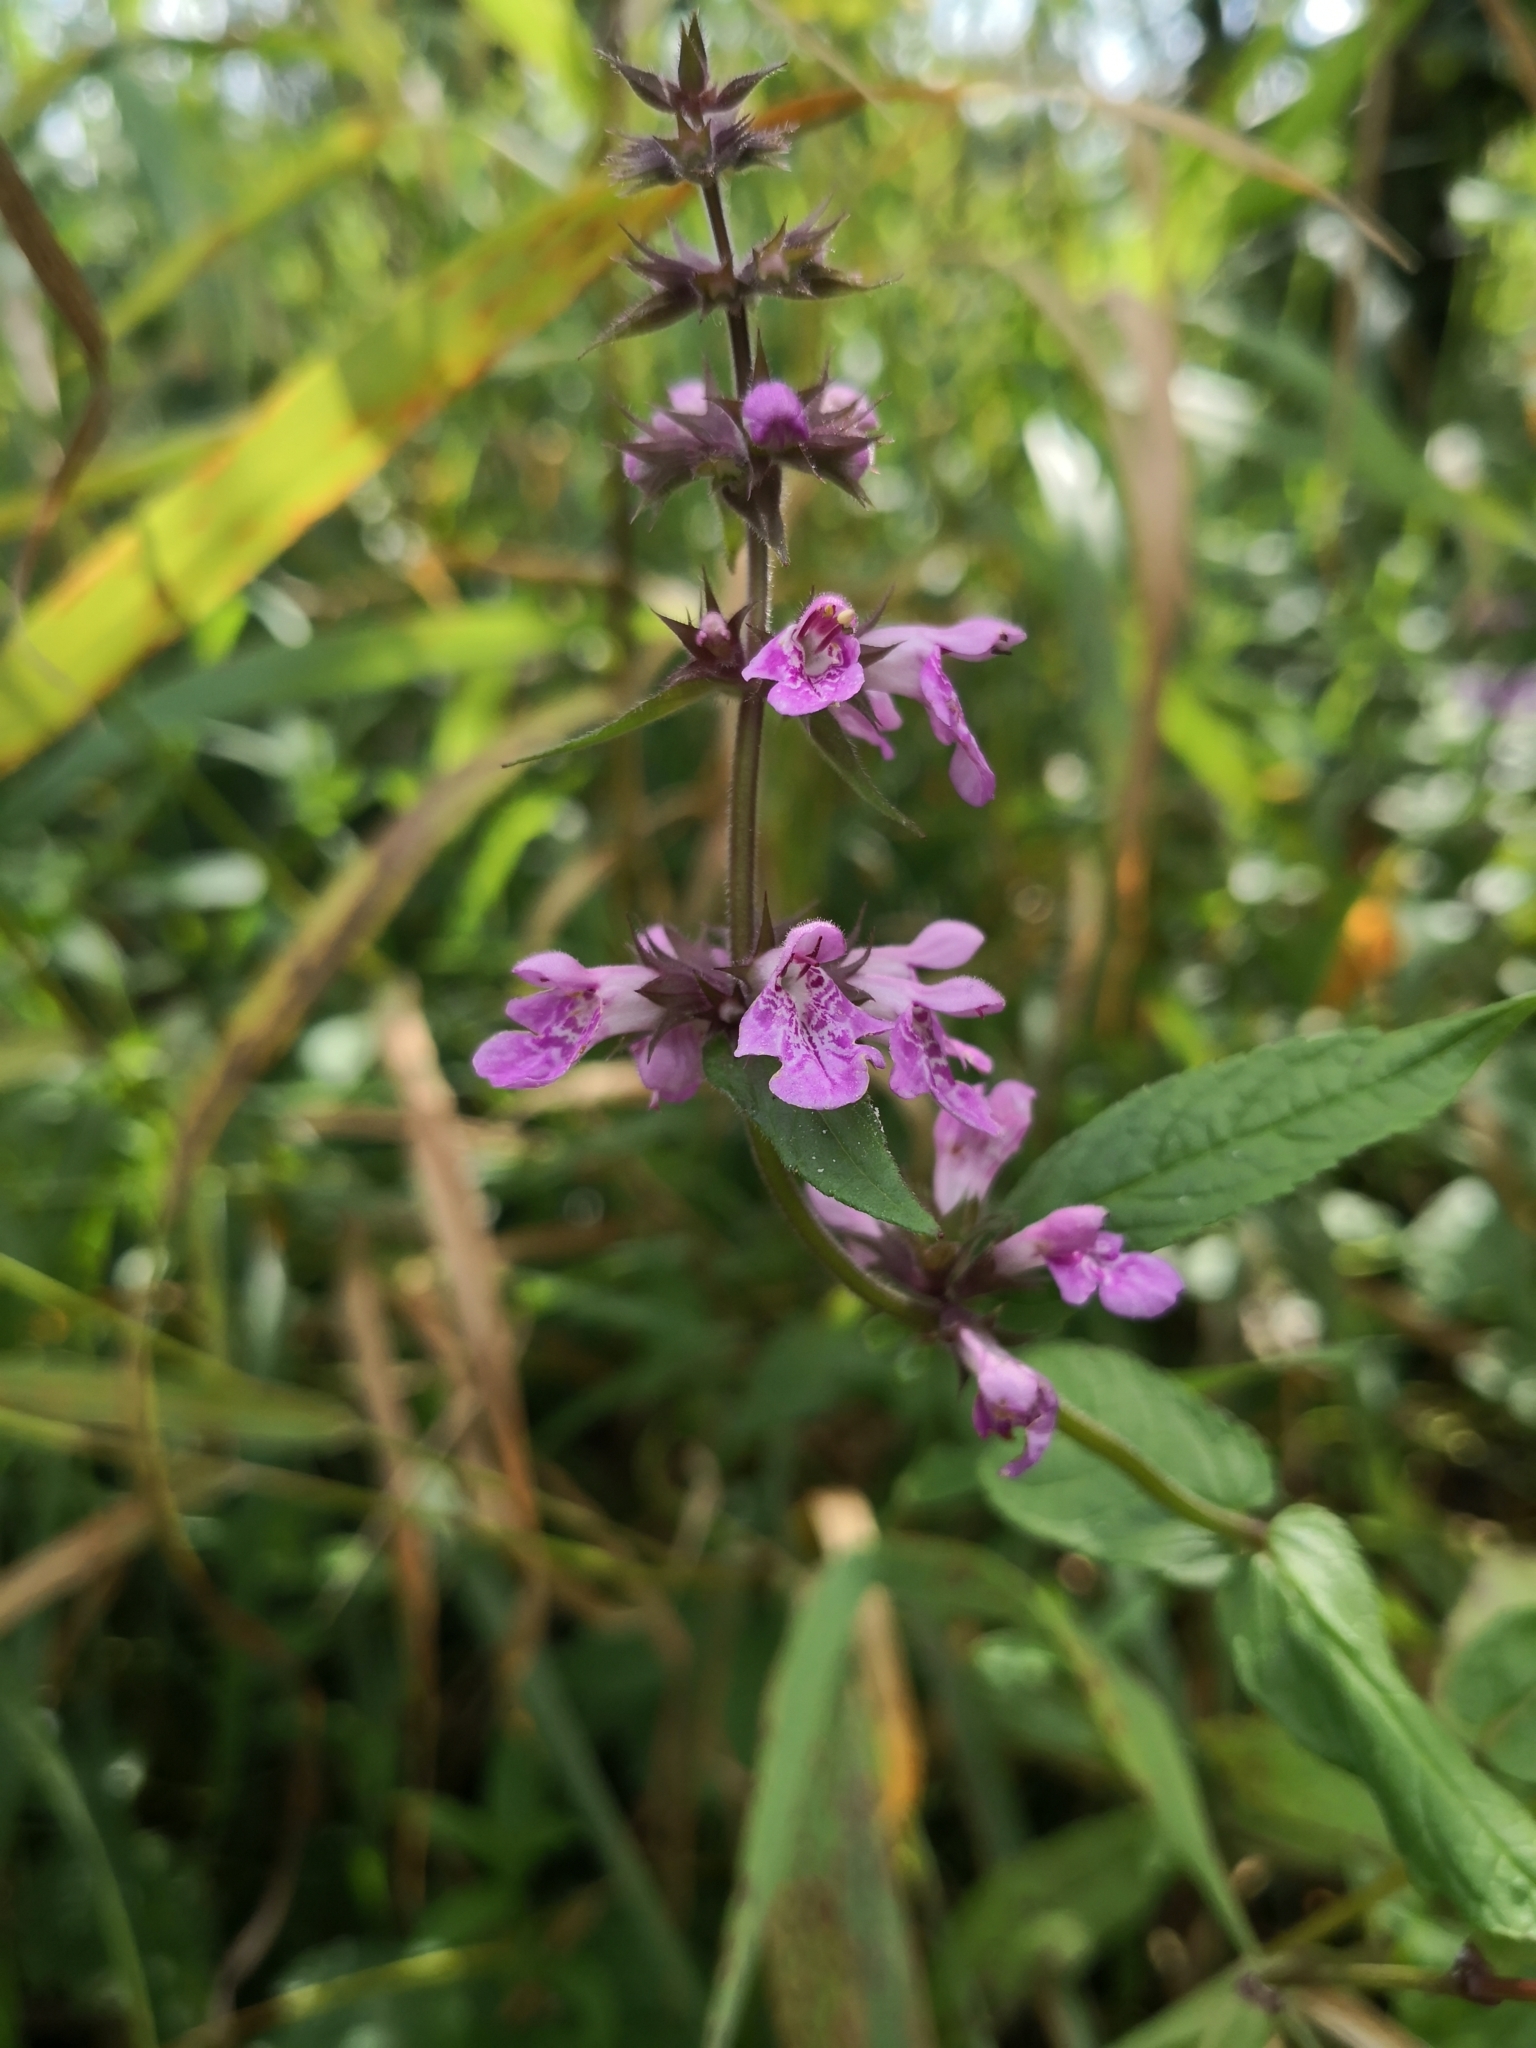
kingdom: Plantae
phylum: Tracheophyta
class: Magnoliopsida
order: Lamiales
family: Lamiaceae
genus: Stachys
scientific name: Stachys palustris
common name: Marsh woundwort
